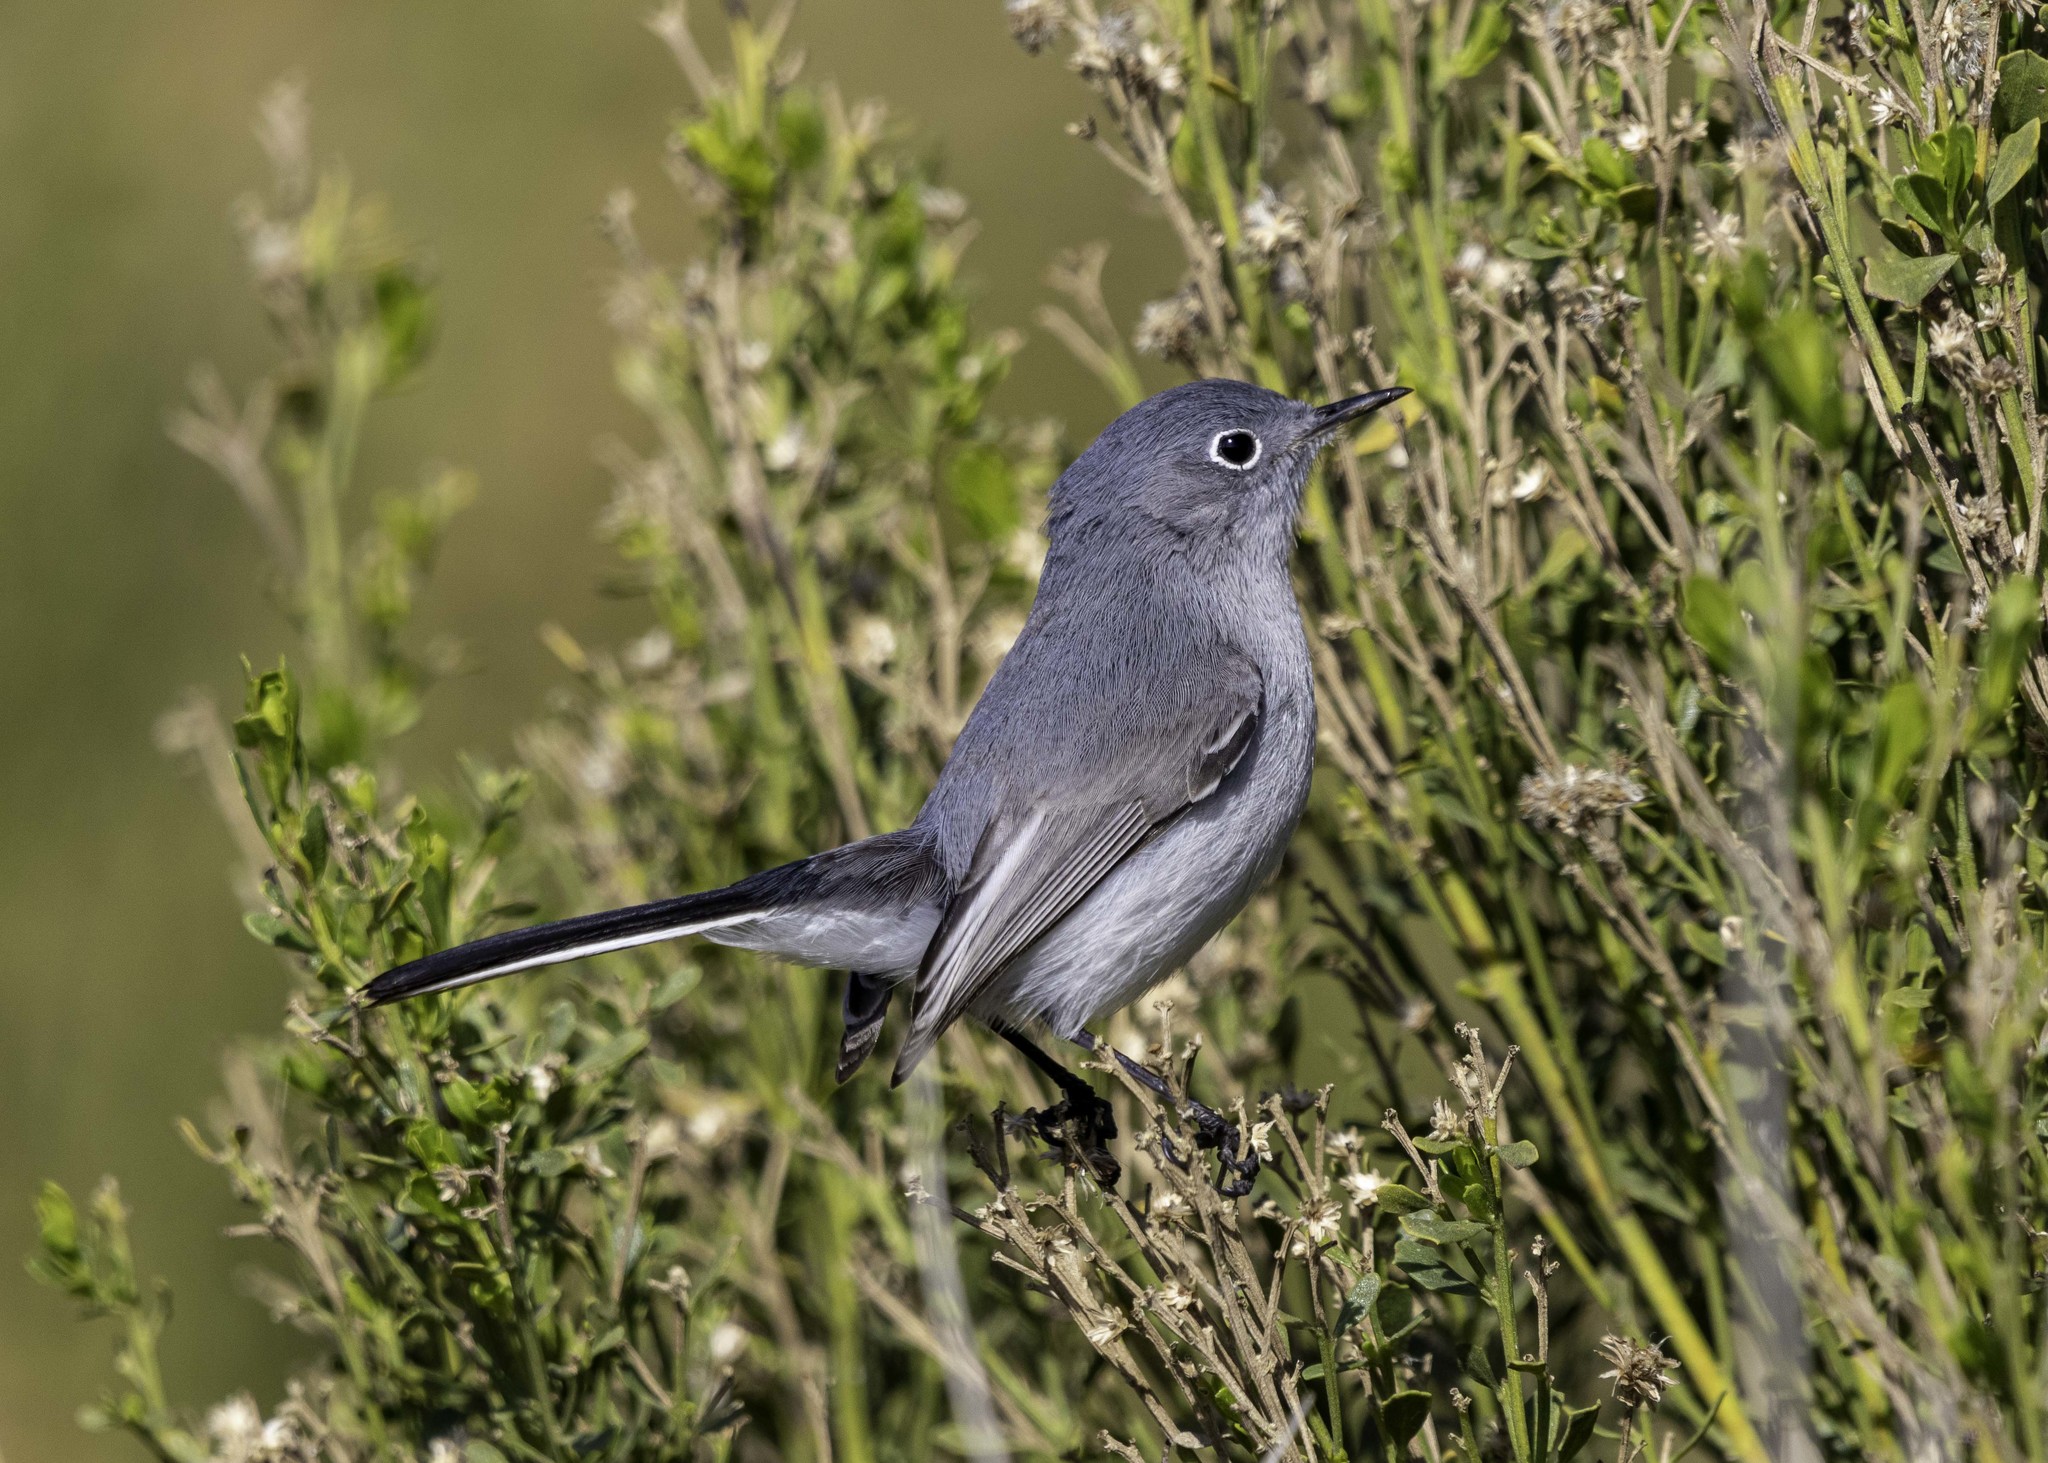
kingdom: Animalia
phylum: Chordata
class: Aves
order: Passeriformes
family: Polioptilidae
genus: Polioptila
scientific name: Polioptila caerulea
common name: Blue-gray gnatcatcher
